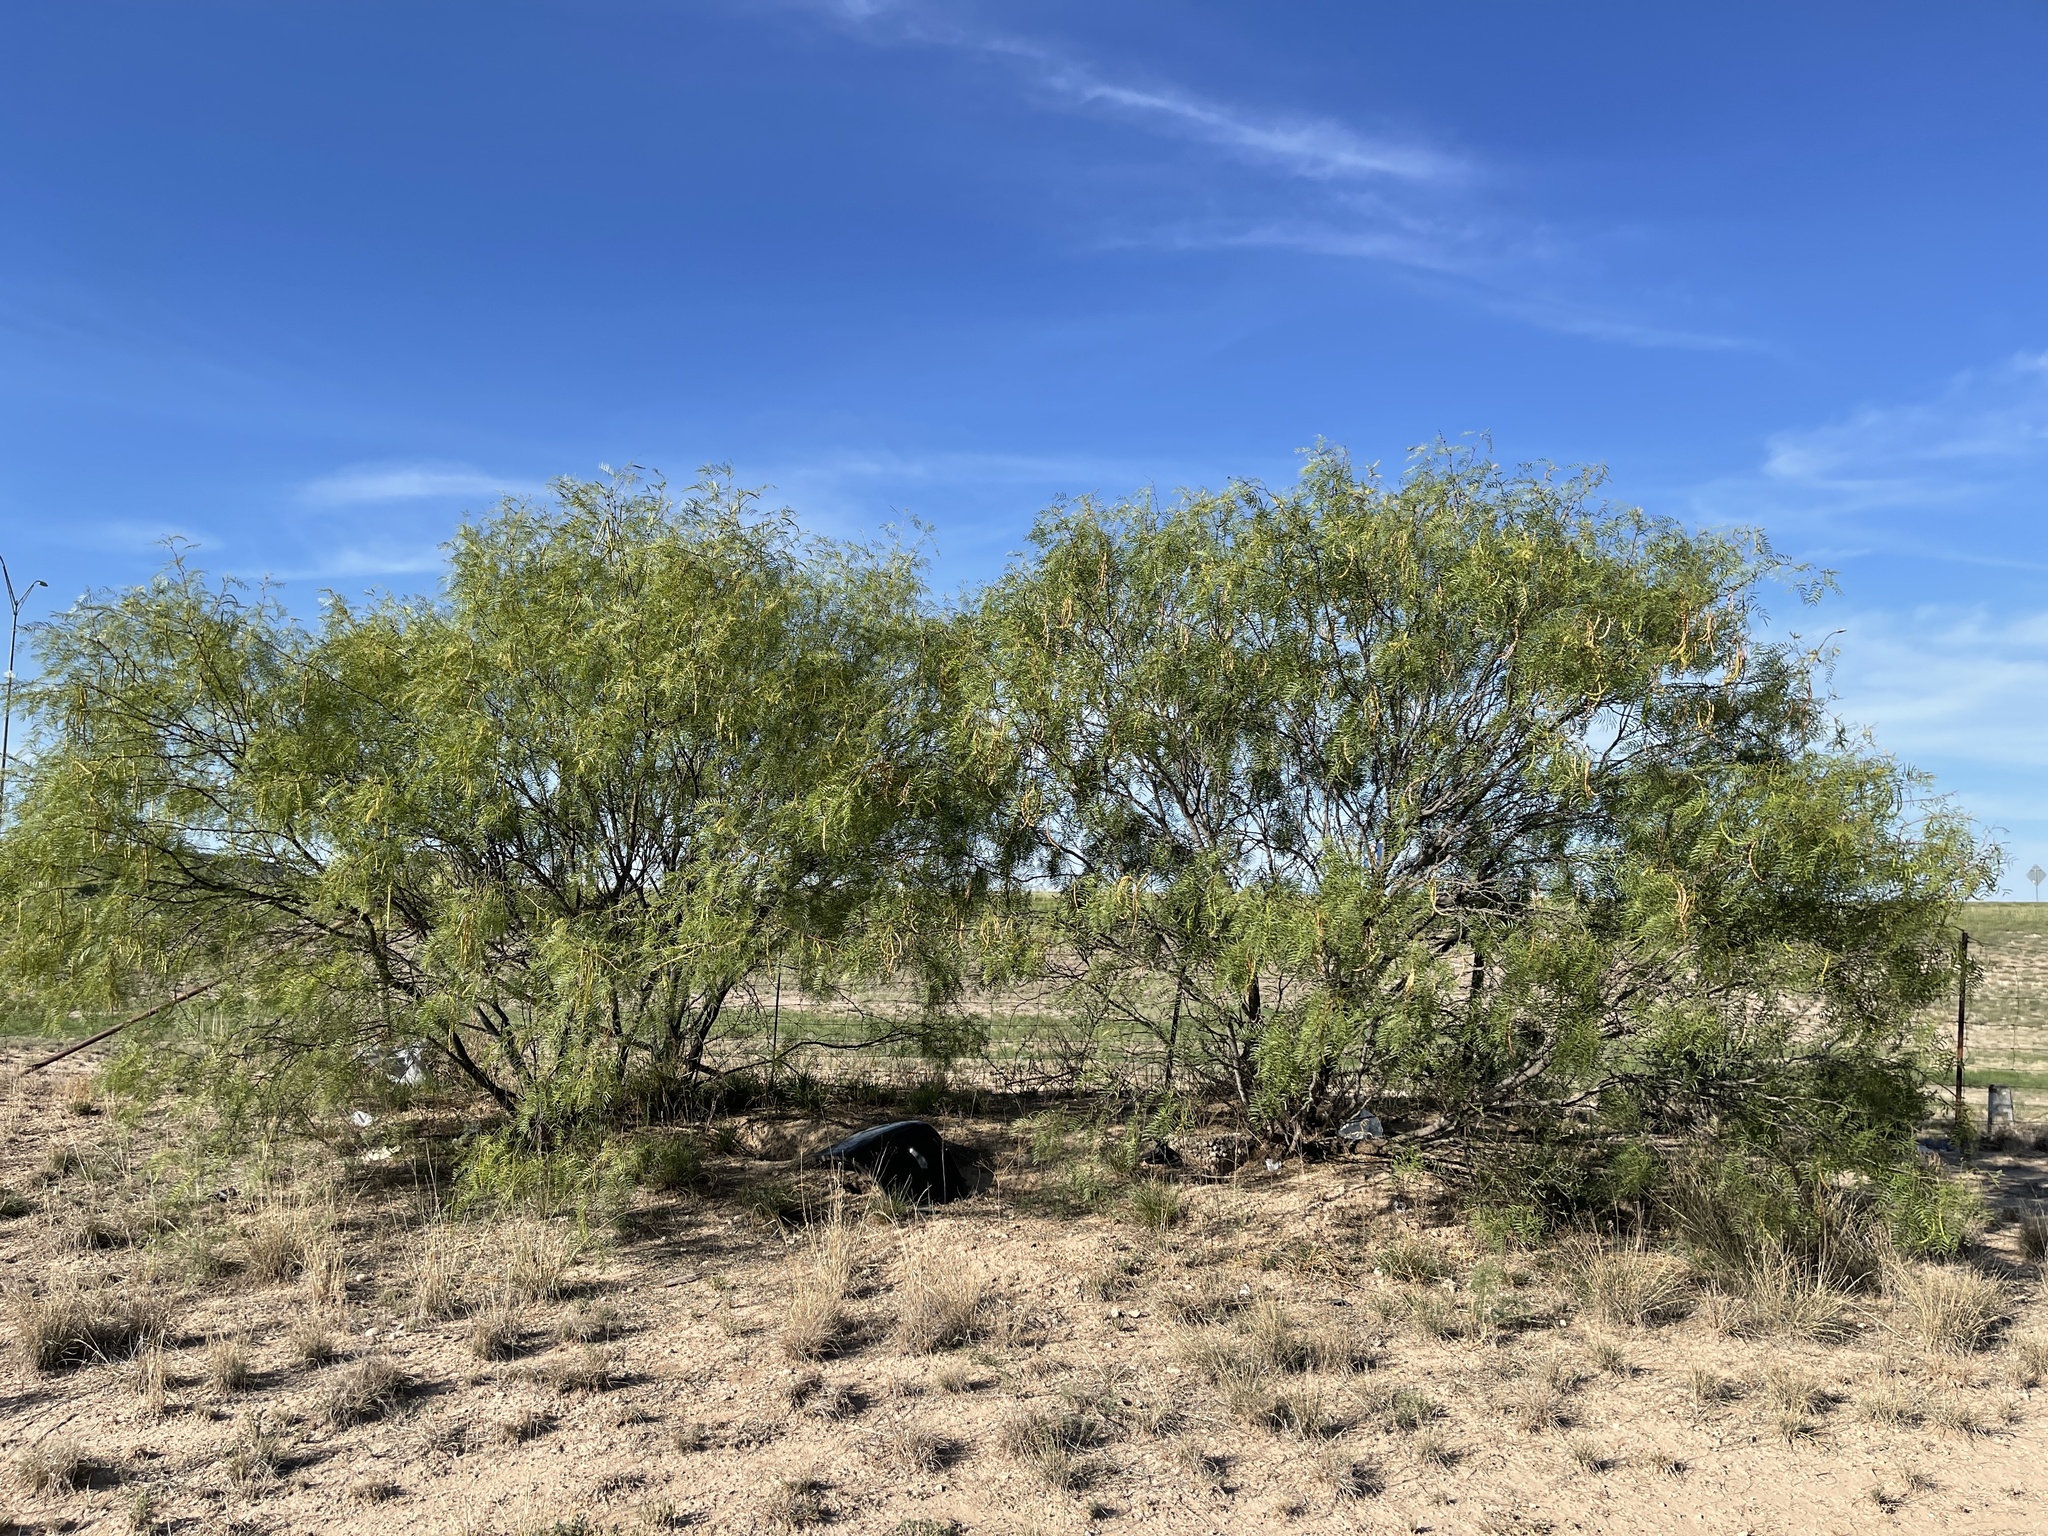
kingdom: Plantae
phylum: Tracheophyta
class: Magnoliopsida
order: Fabales
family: Fabaceae
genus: Prosopis
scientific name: Prosopis glandulosa
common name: Honey mesquite
